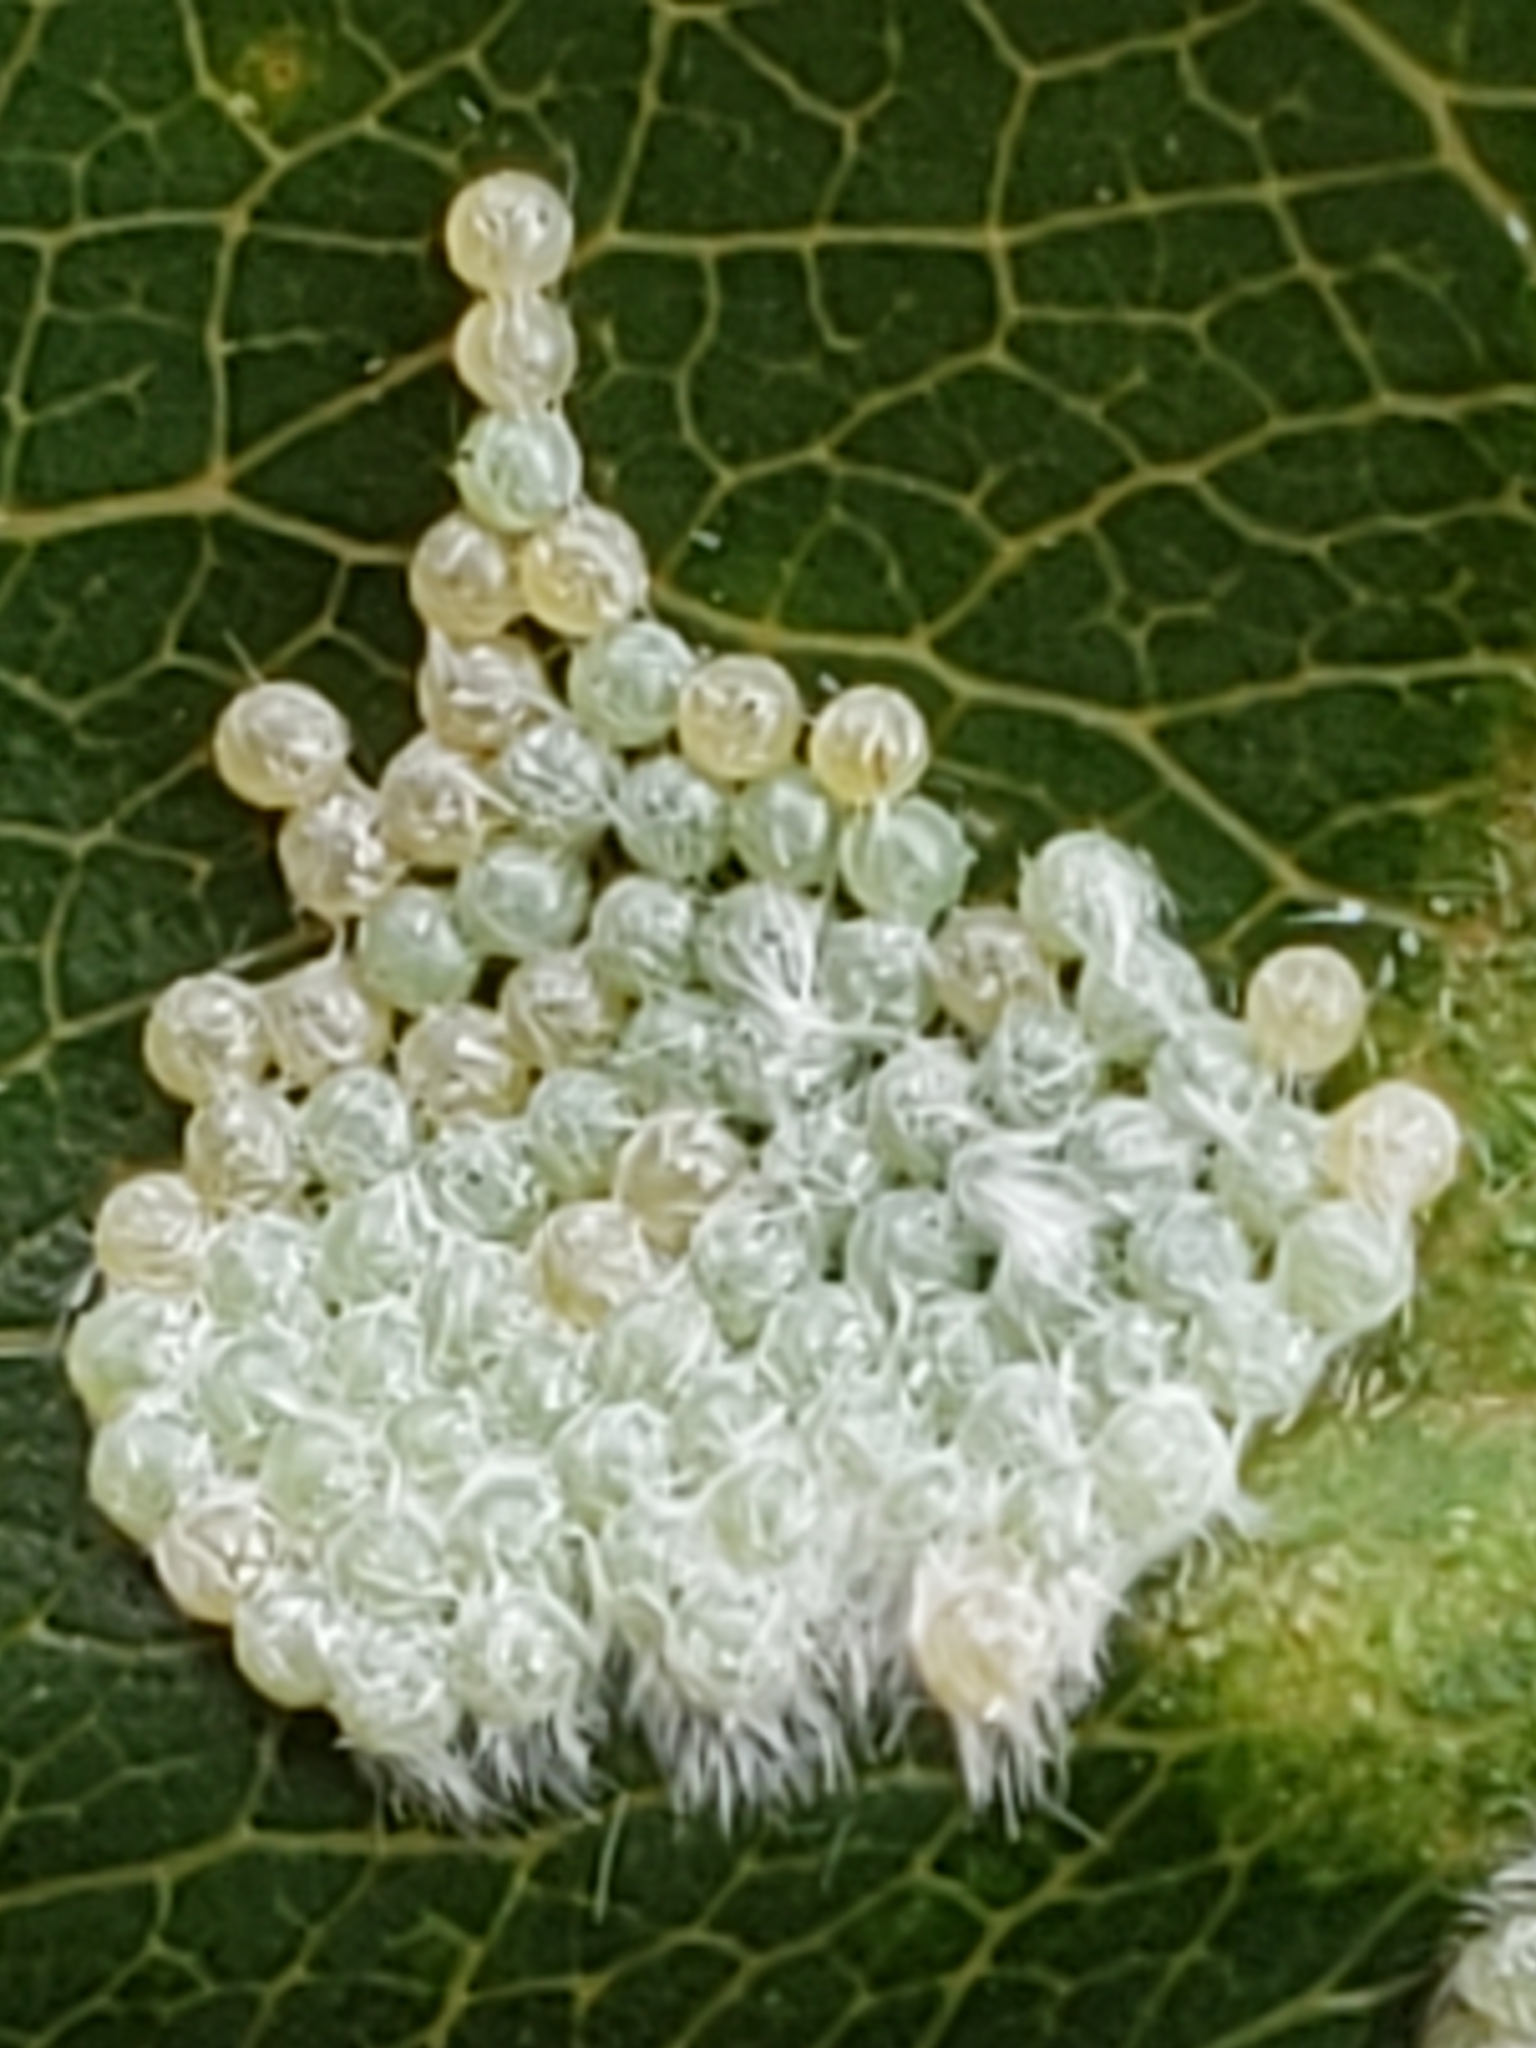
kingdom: Animalia
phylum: Arthropoda
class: Insecta
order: Lepidoptera
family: Erebidae
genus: Hyphantria
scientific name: Hyphantria cunea
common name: American white moth
